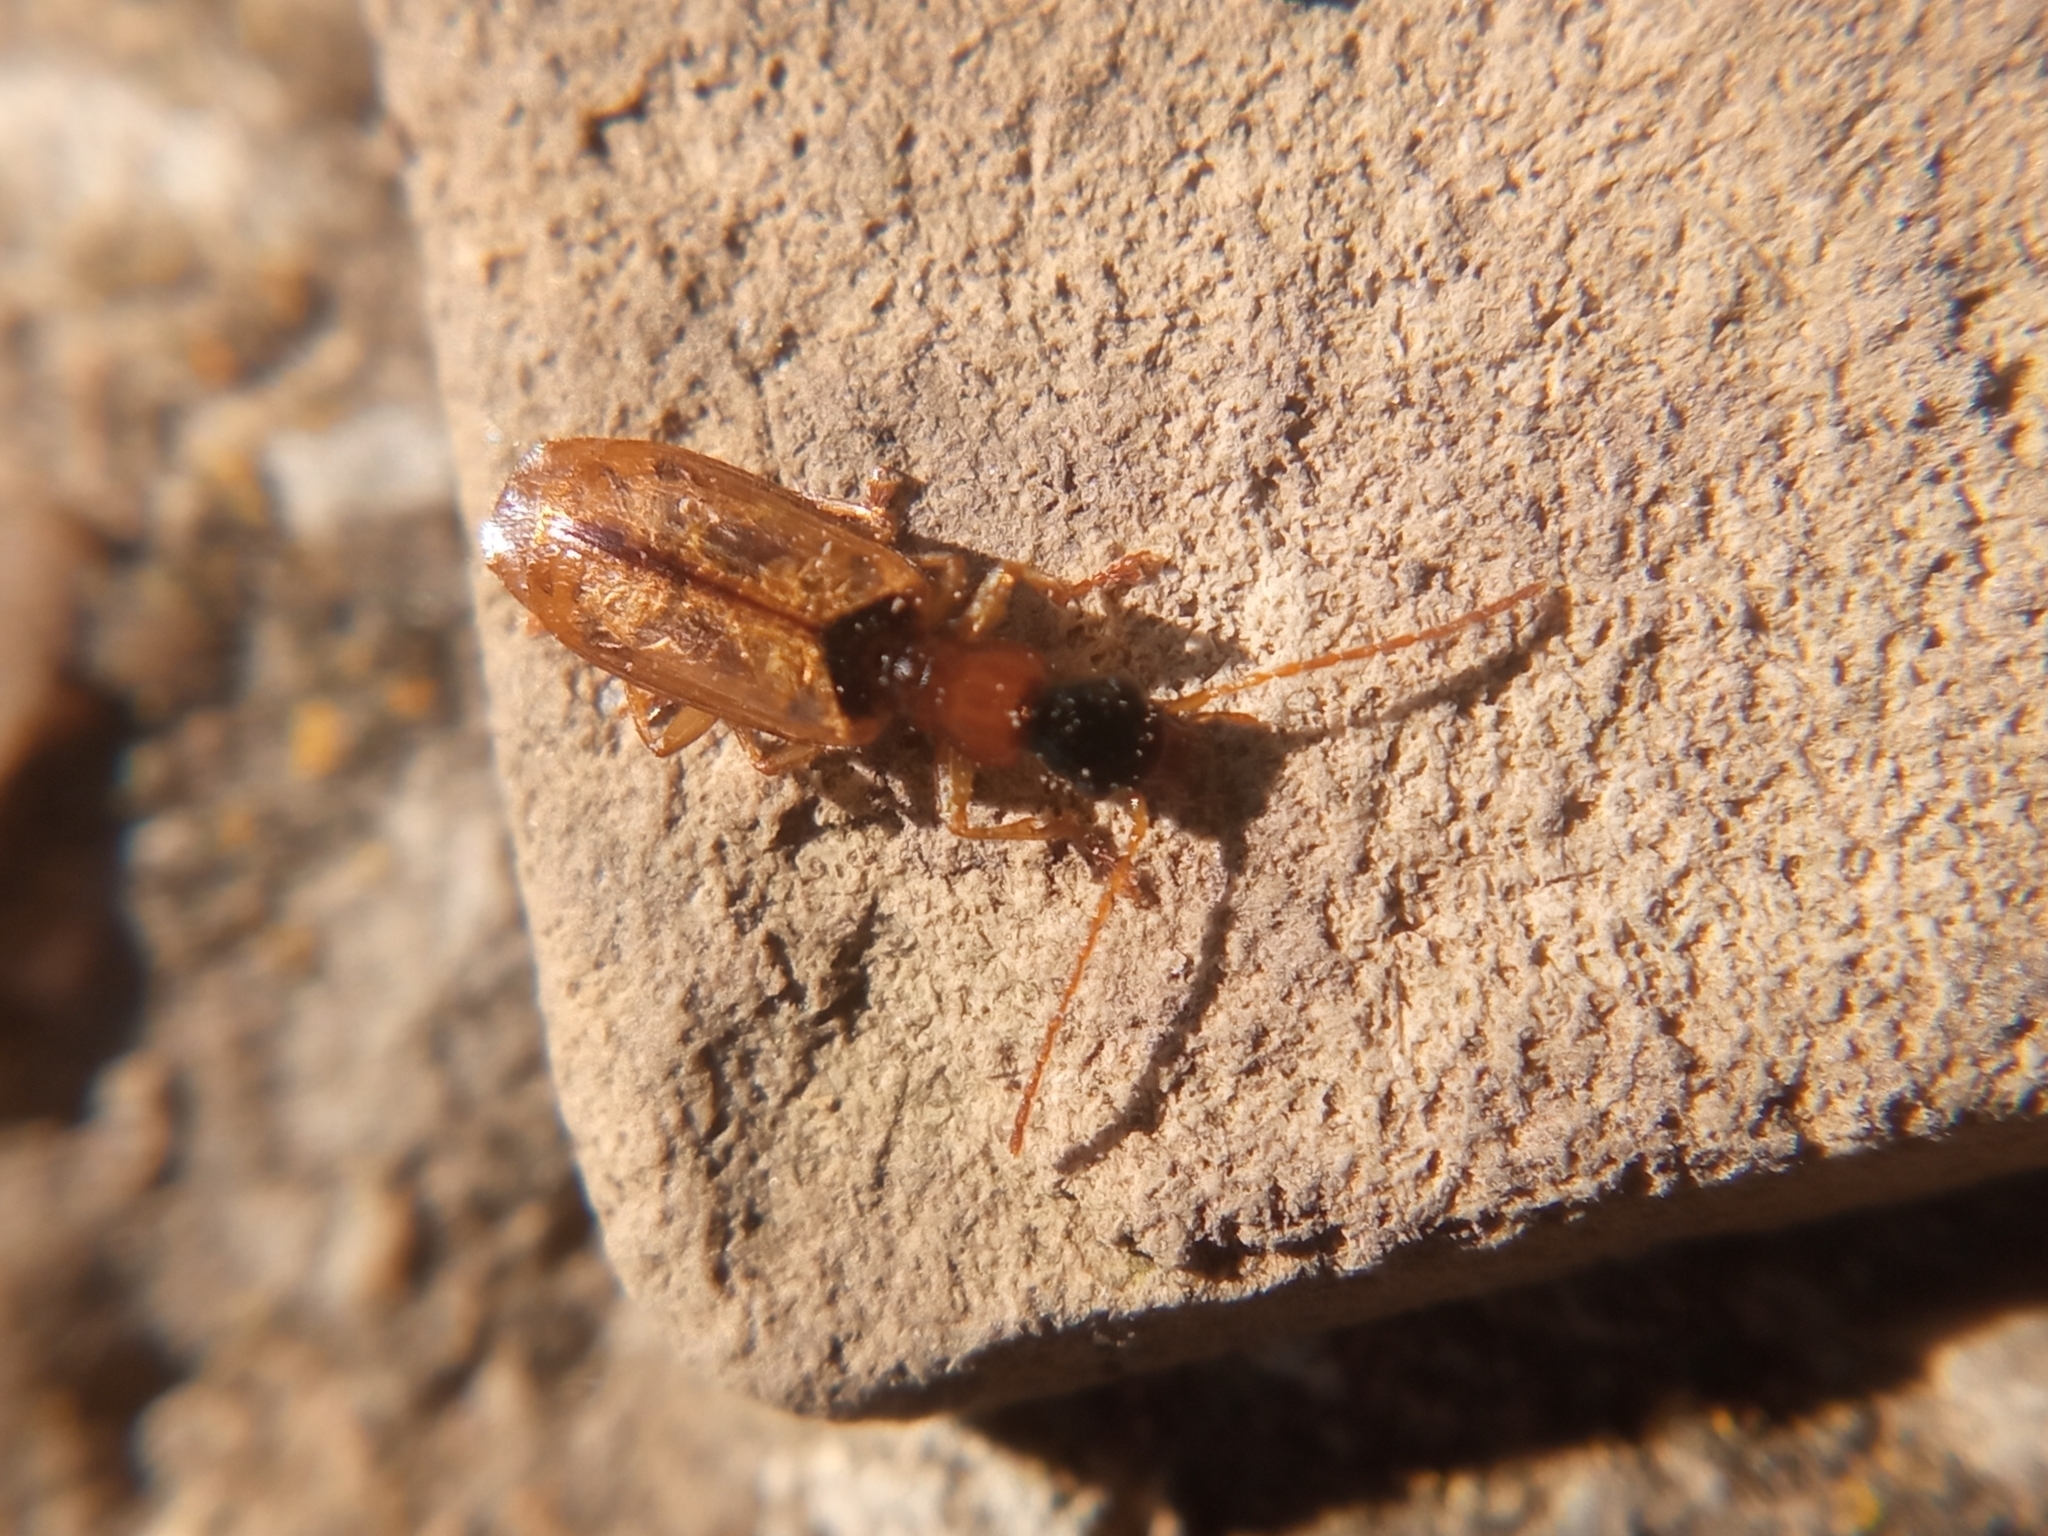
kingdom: Animalia
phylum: Arthropoda
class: Insecta
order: Coleoptera
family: Carabidae
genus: Demetrias
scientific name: Demetrias atricapillus
